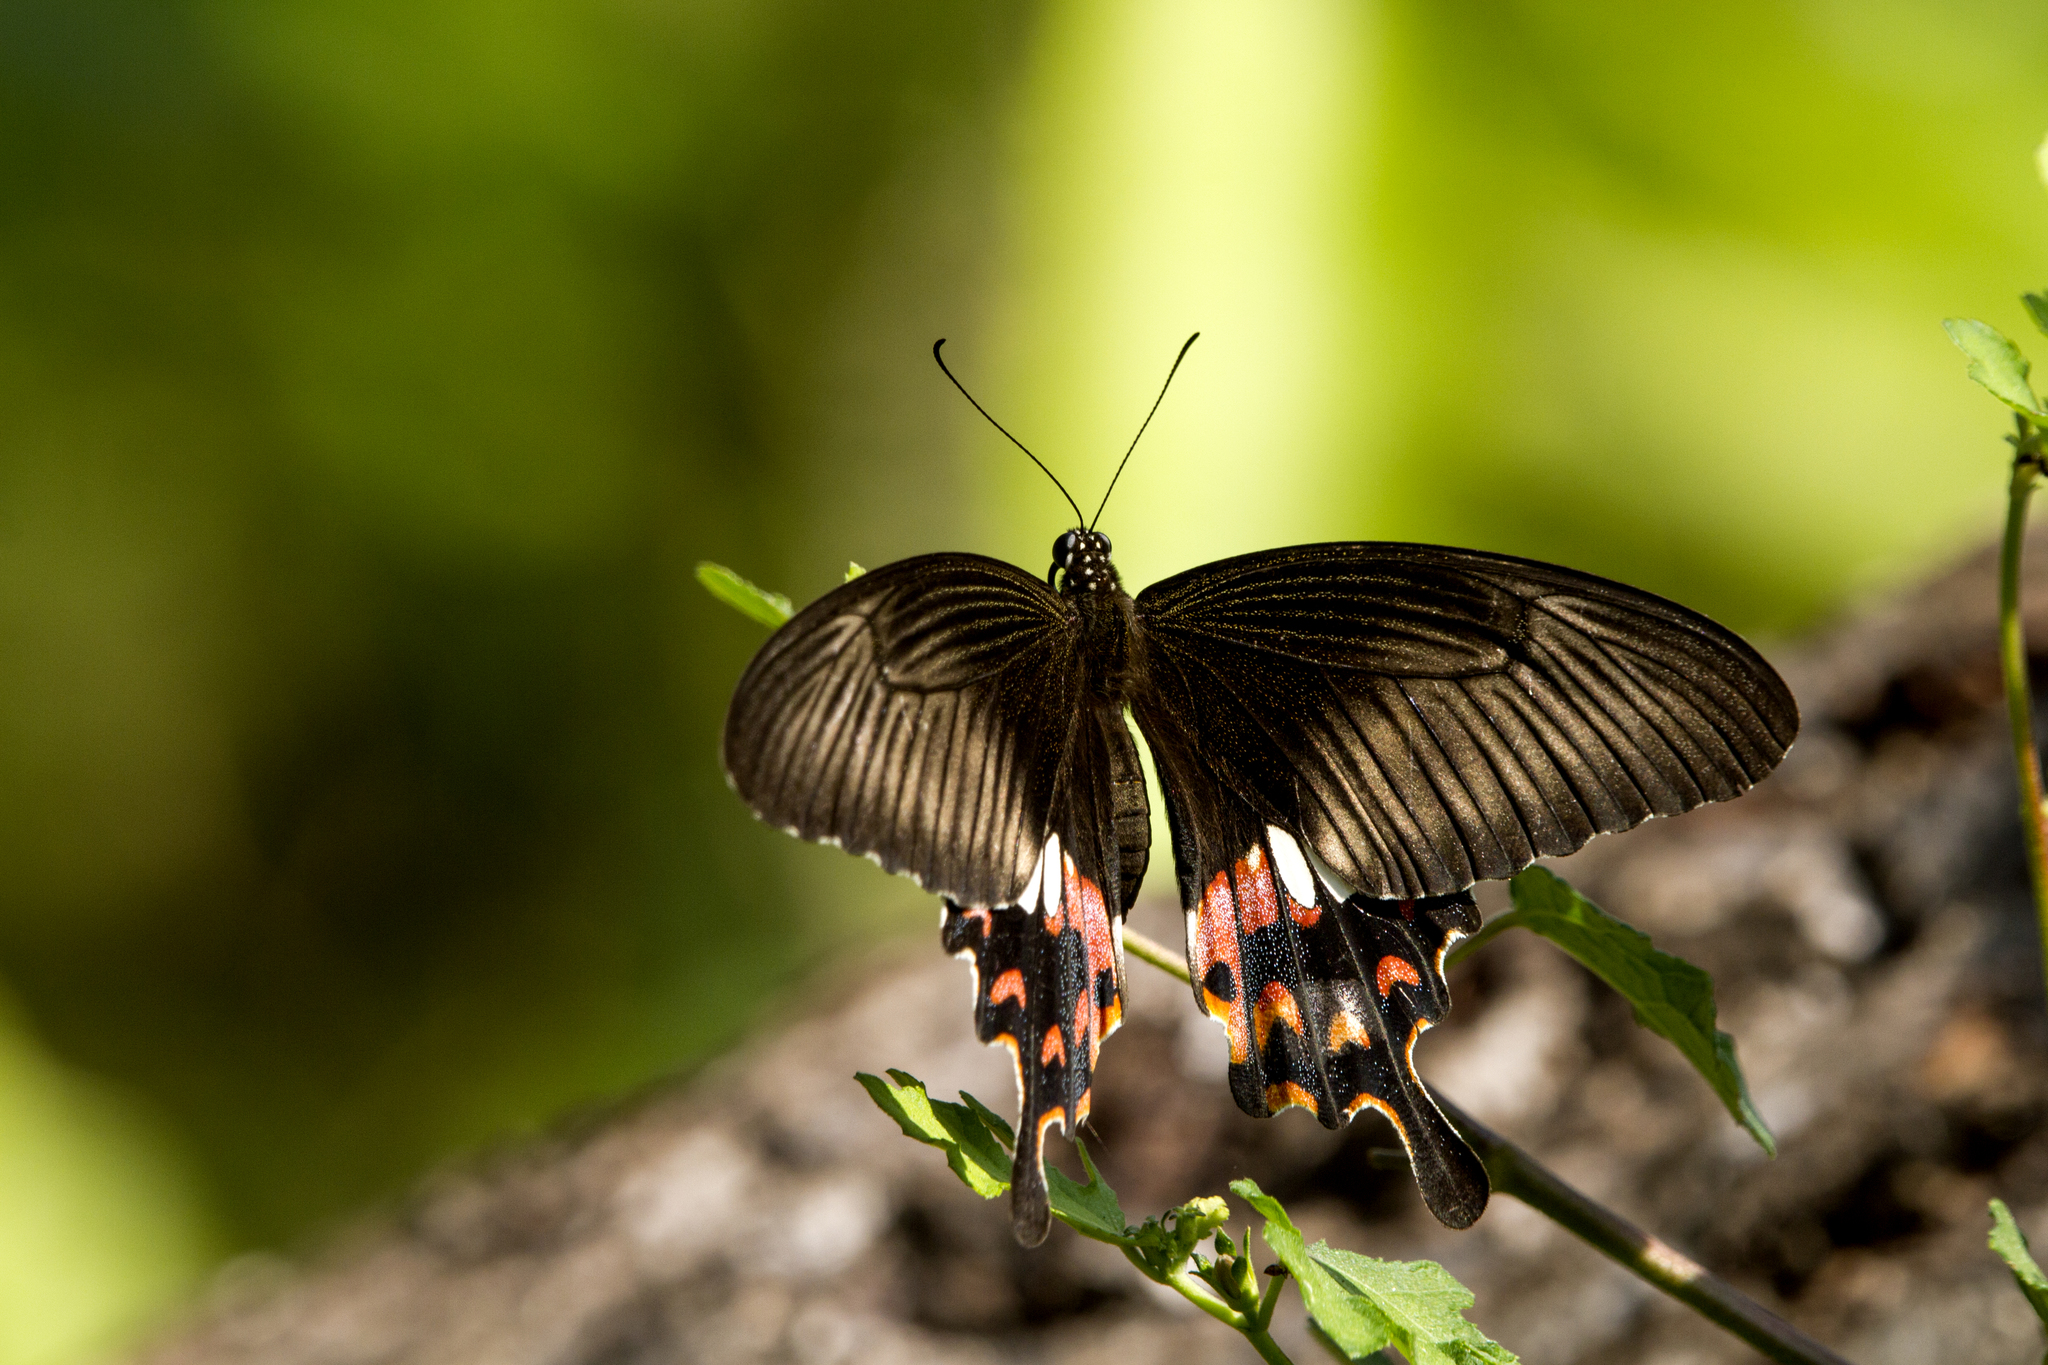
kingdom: Animalia
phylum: Arthropoda
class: Insecta
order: Lepidoptera
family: Papilionidae
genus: Papilio
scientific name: Papilio polytes
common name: Common mormon
